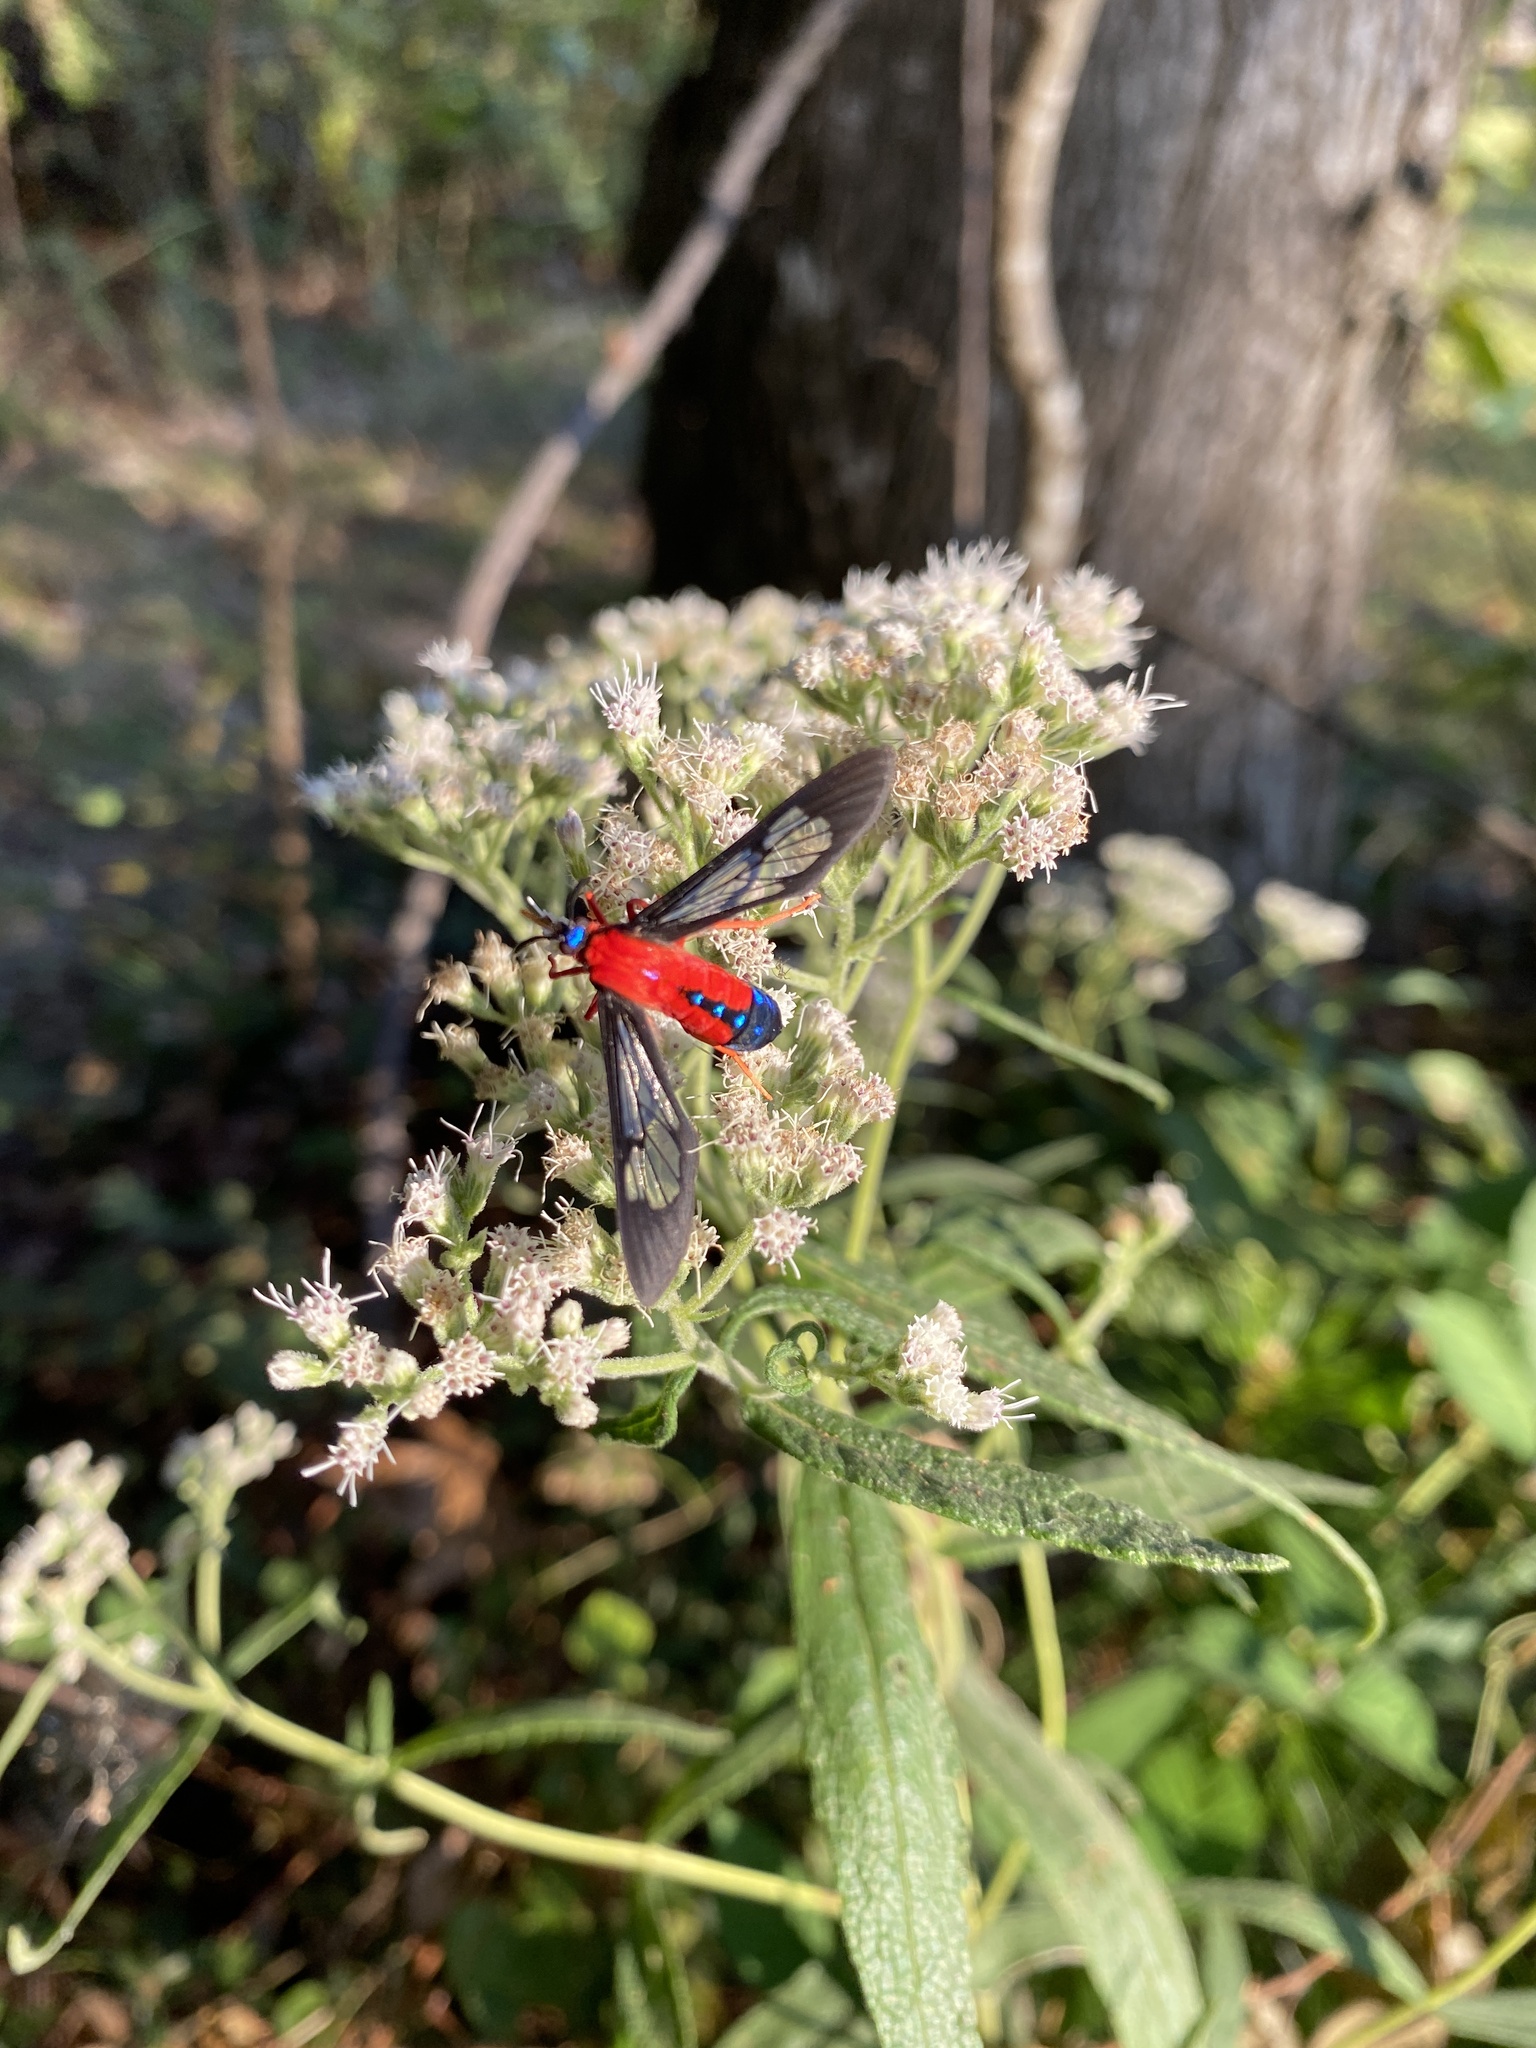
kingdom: Animalia
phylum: Arthropoda
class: Insecta
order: Lepidoptera
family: Erebidae
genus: Cosmosoma
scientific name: Cosmosoma myrodora
